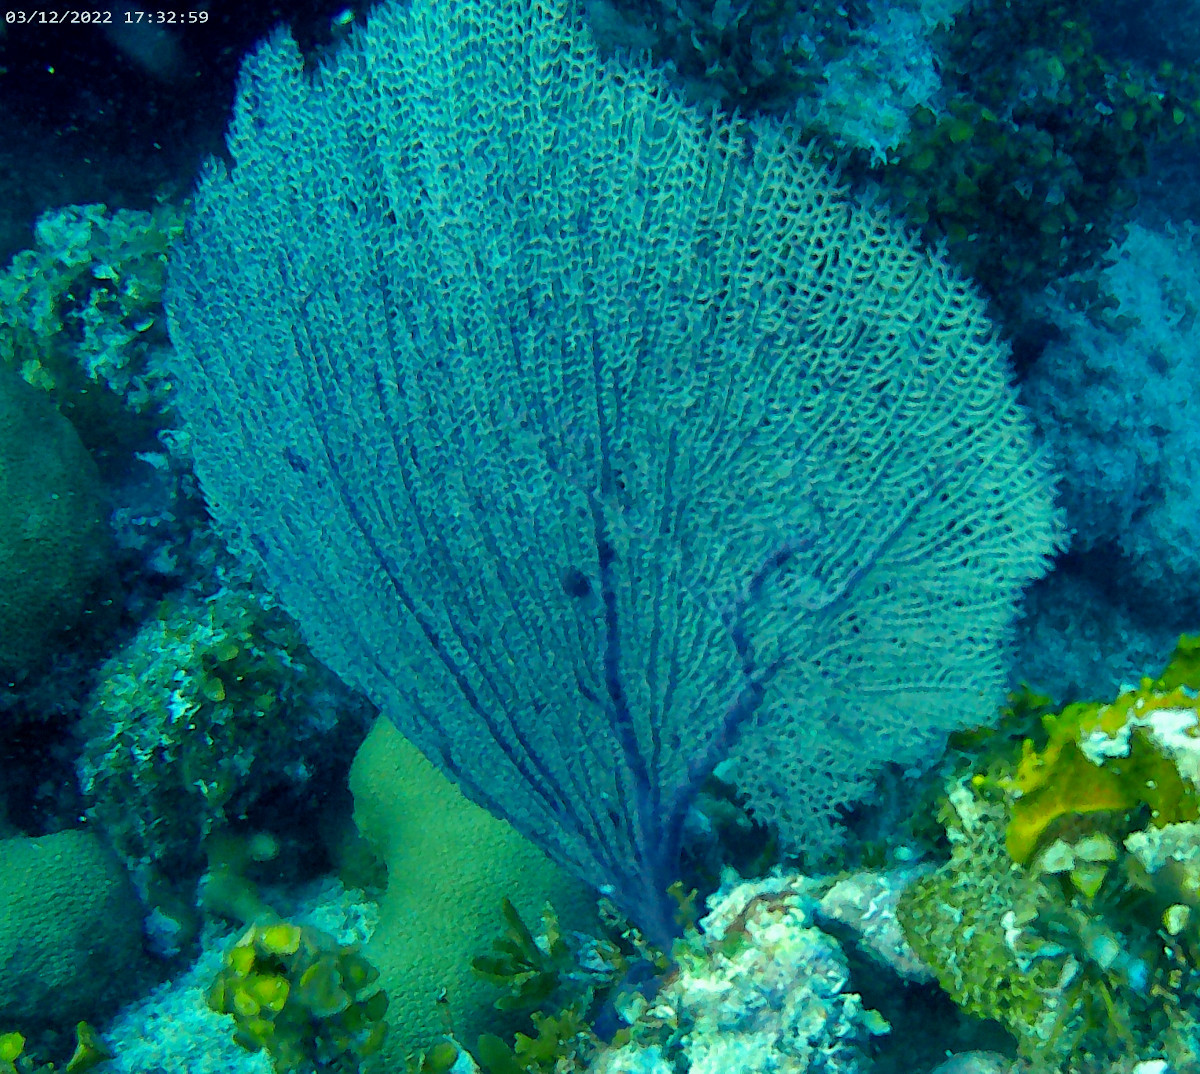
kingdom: Animalia
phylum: Cnidaria
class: Anthozoa
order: Malacalcyonacea
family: Gorgoniidae
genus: Gorgonia
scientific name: Gorgonia ventalina
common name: Common sea fan
